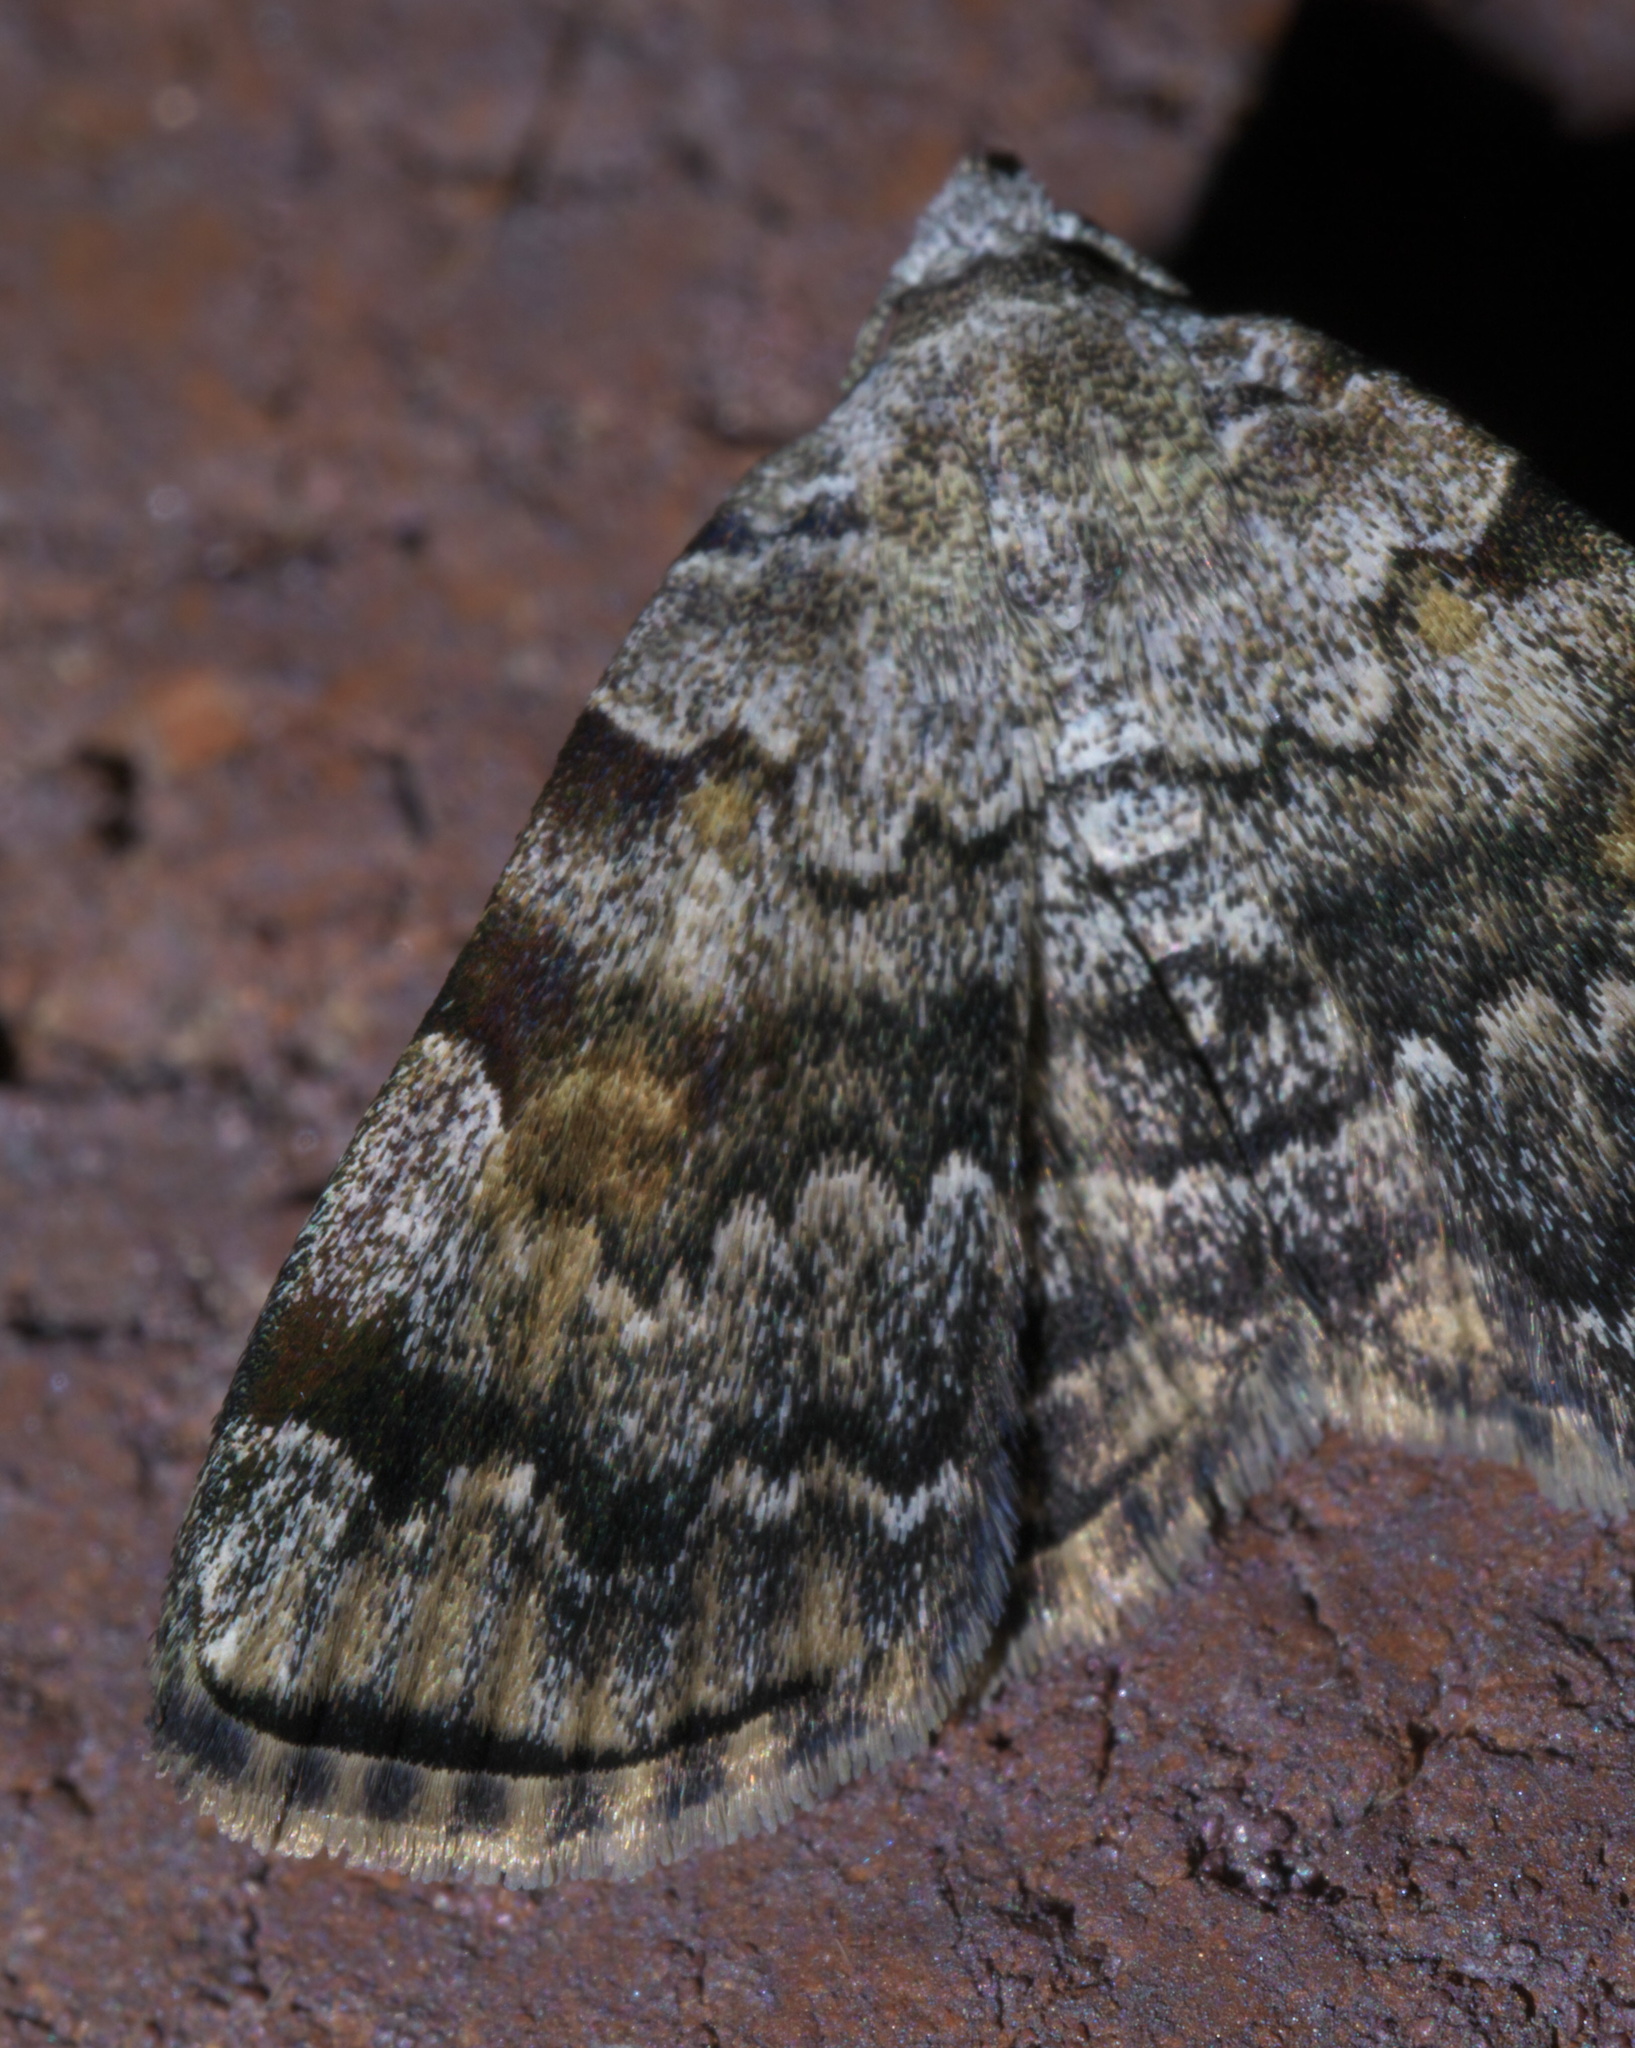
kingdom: Animalia
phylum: Arthropoda
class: Insecta
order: Lepidoptera
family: Erebidae
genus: Idia
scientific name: Idia americalis
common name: American idia moth
